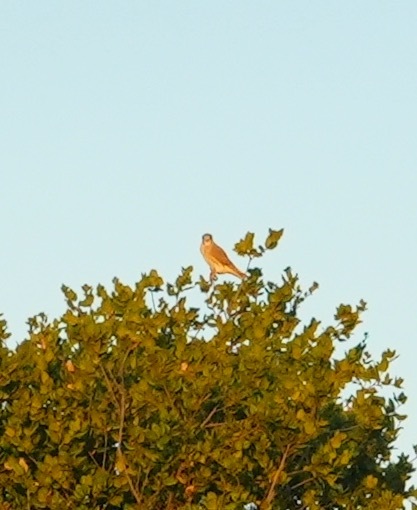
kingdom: Animalia
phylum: Chordata
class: Aves
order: Falconiformes
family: Falconidae
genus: Falco
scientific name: Falco sparverius
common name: American kestrel
